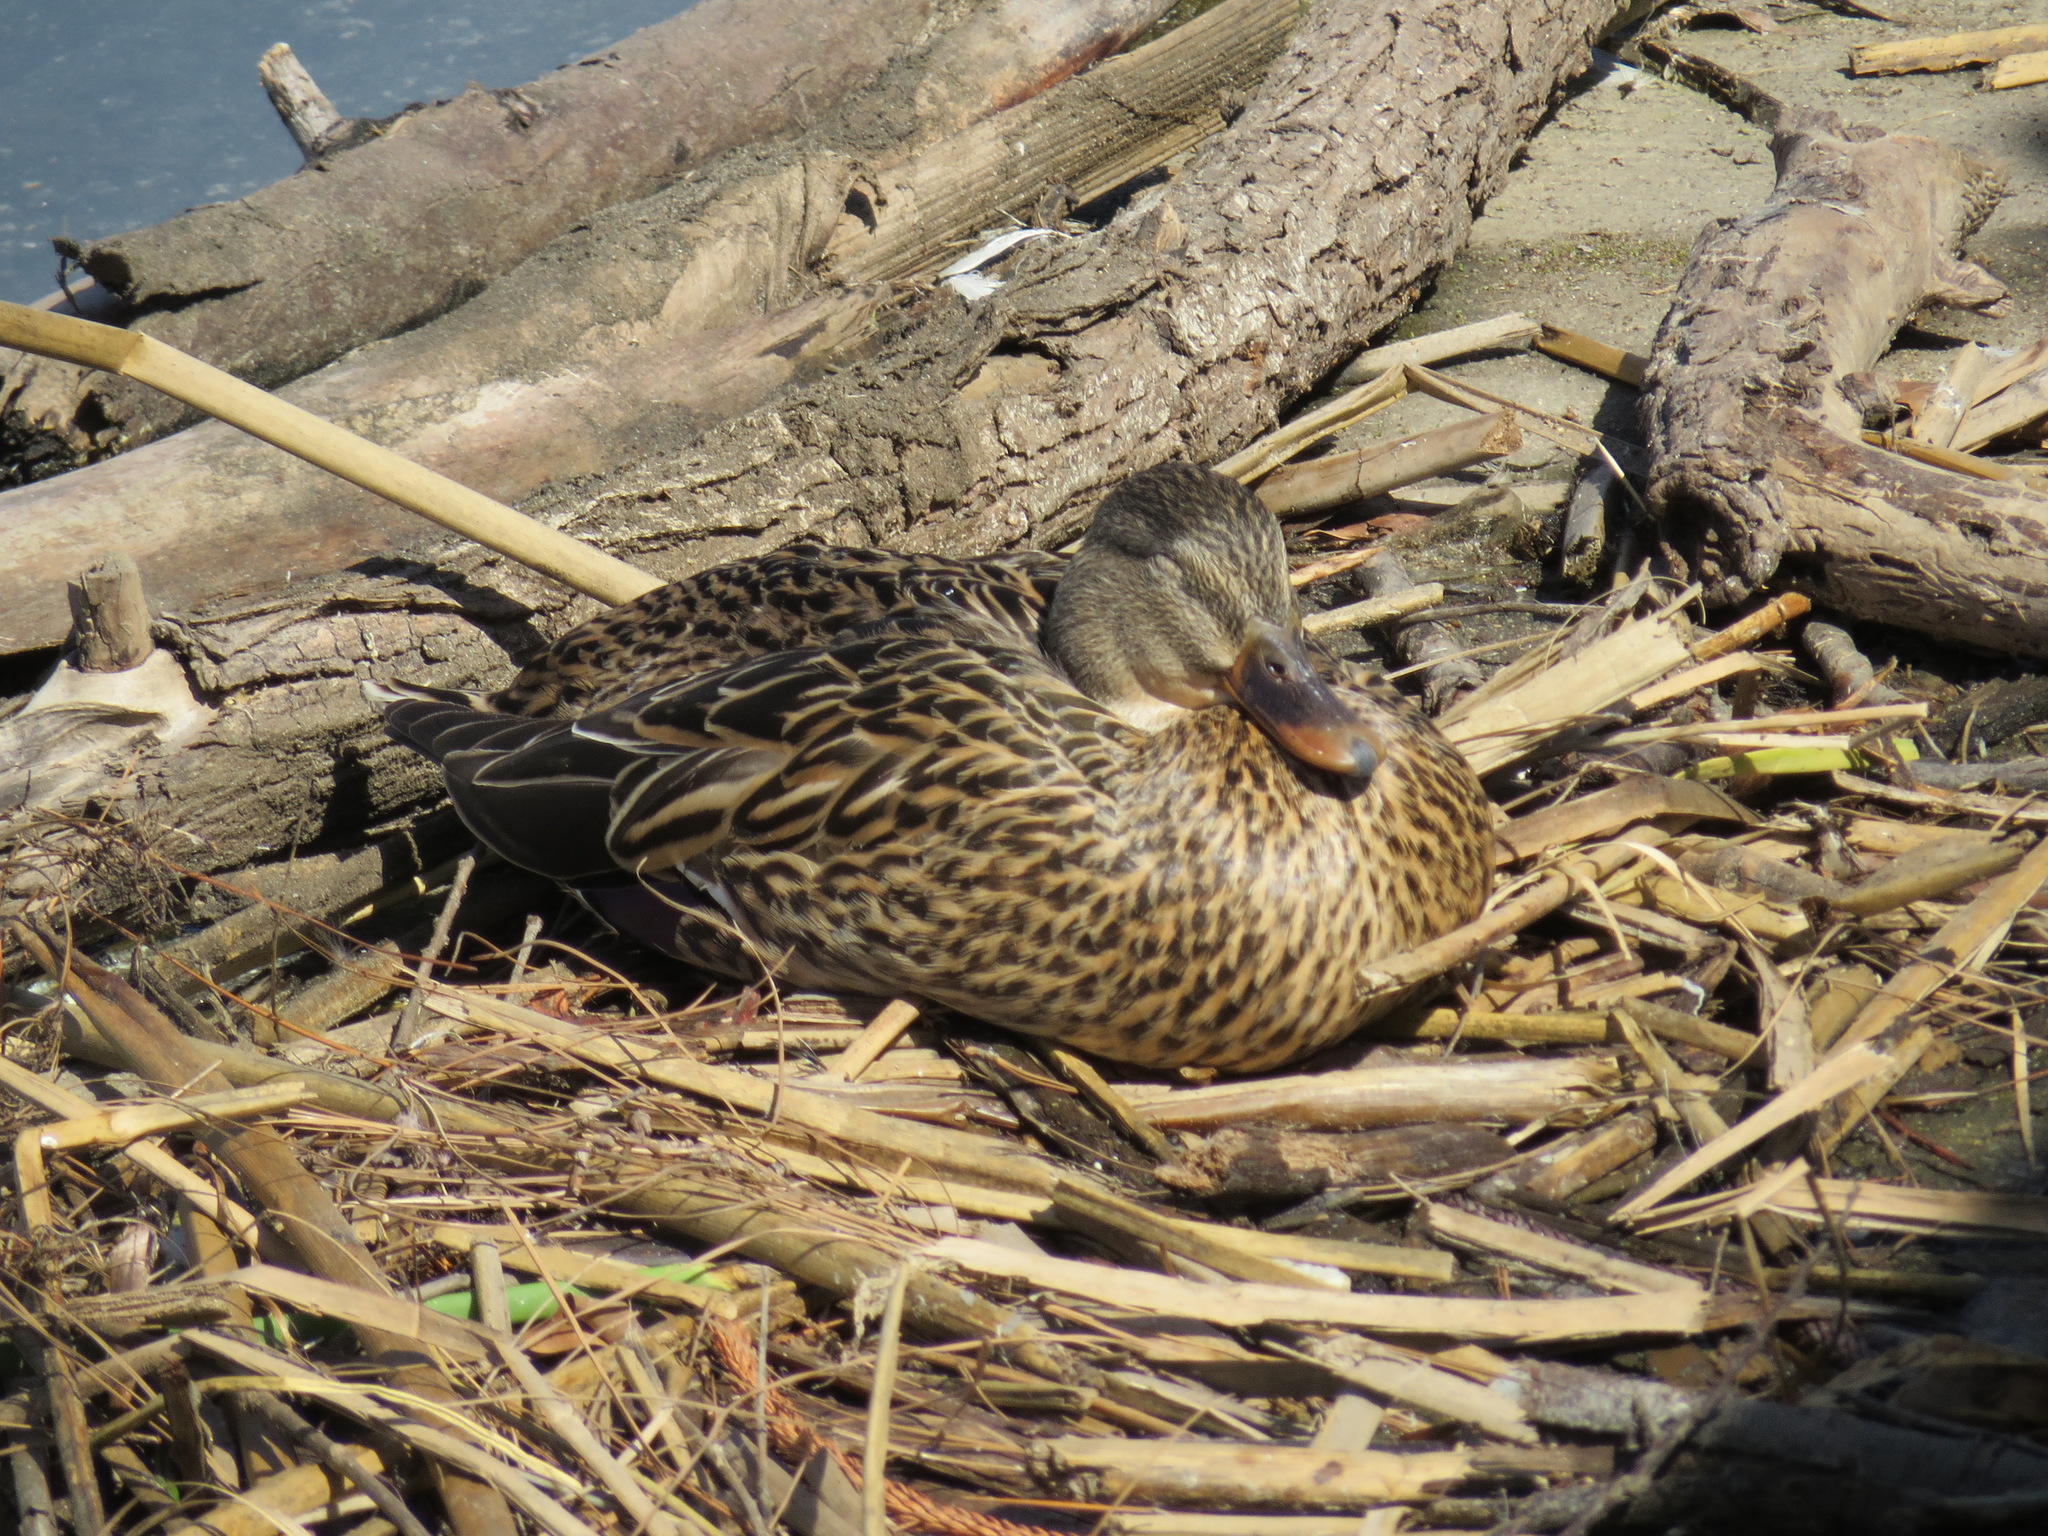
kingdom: Animalia
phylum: Chordata
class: Aves
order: Anseriformes
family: Anatidae
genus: Anas
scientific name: Anas platyrhynchos
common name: Mallard
